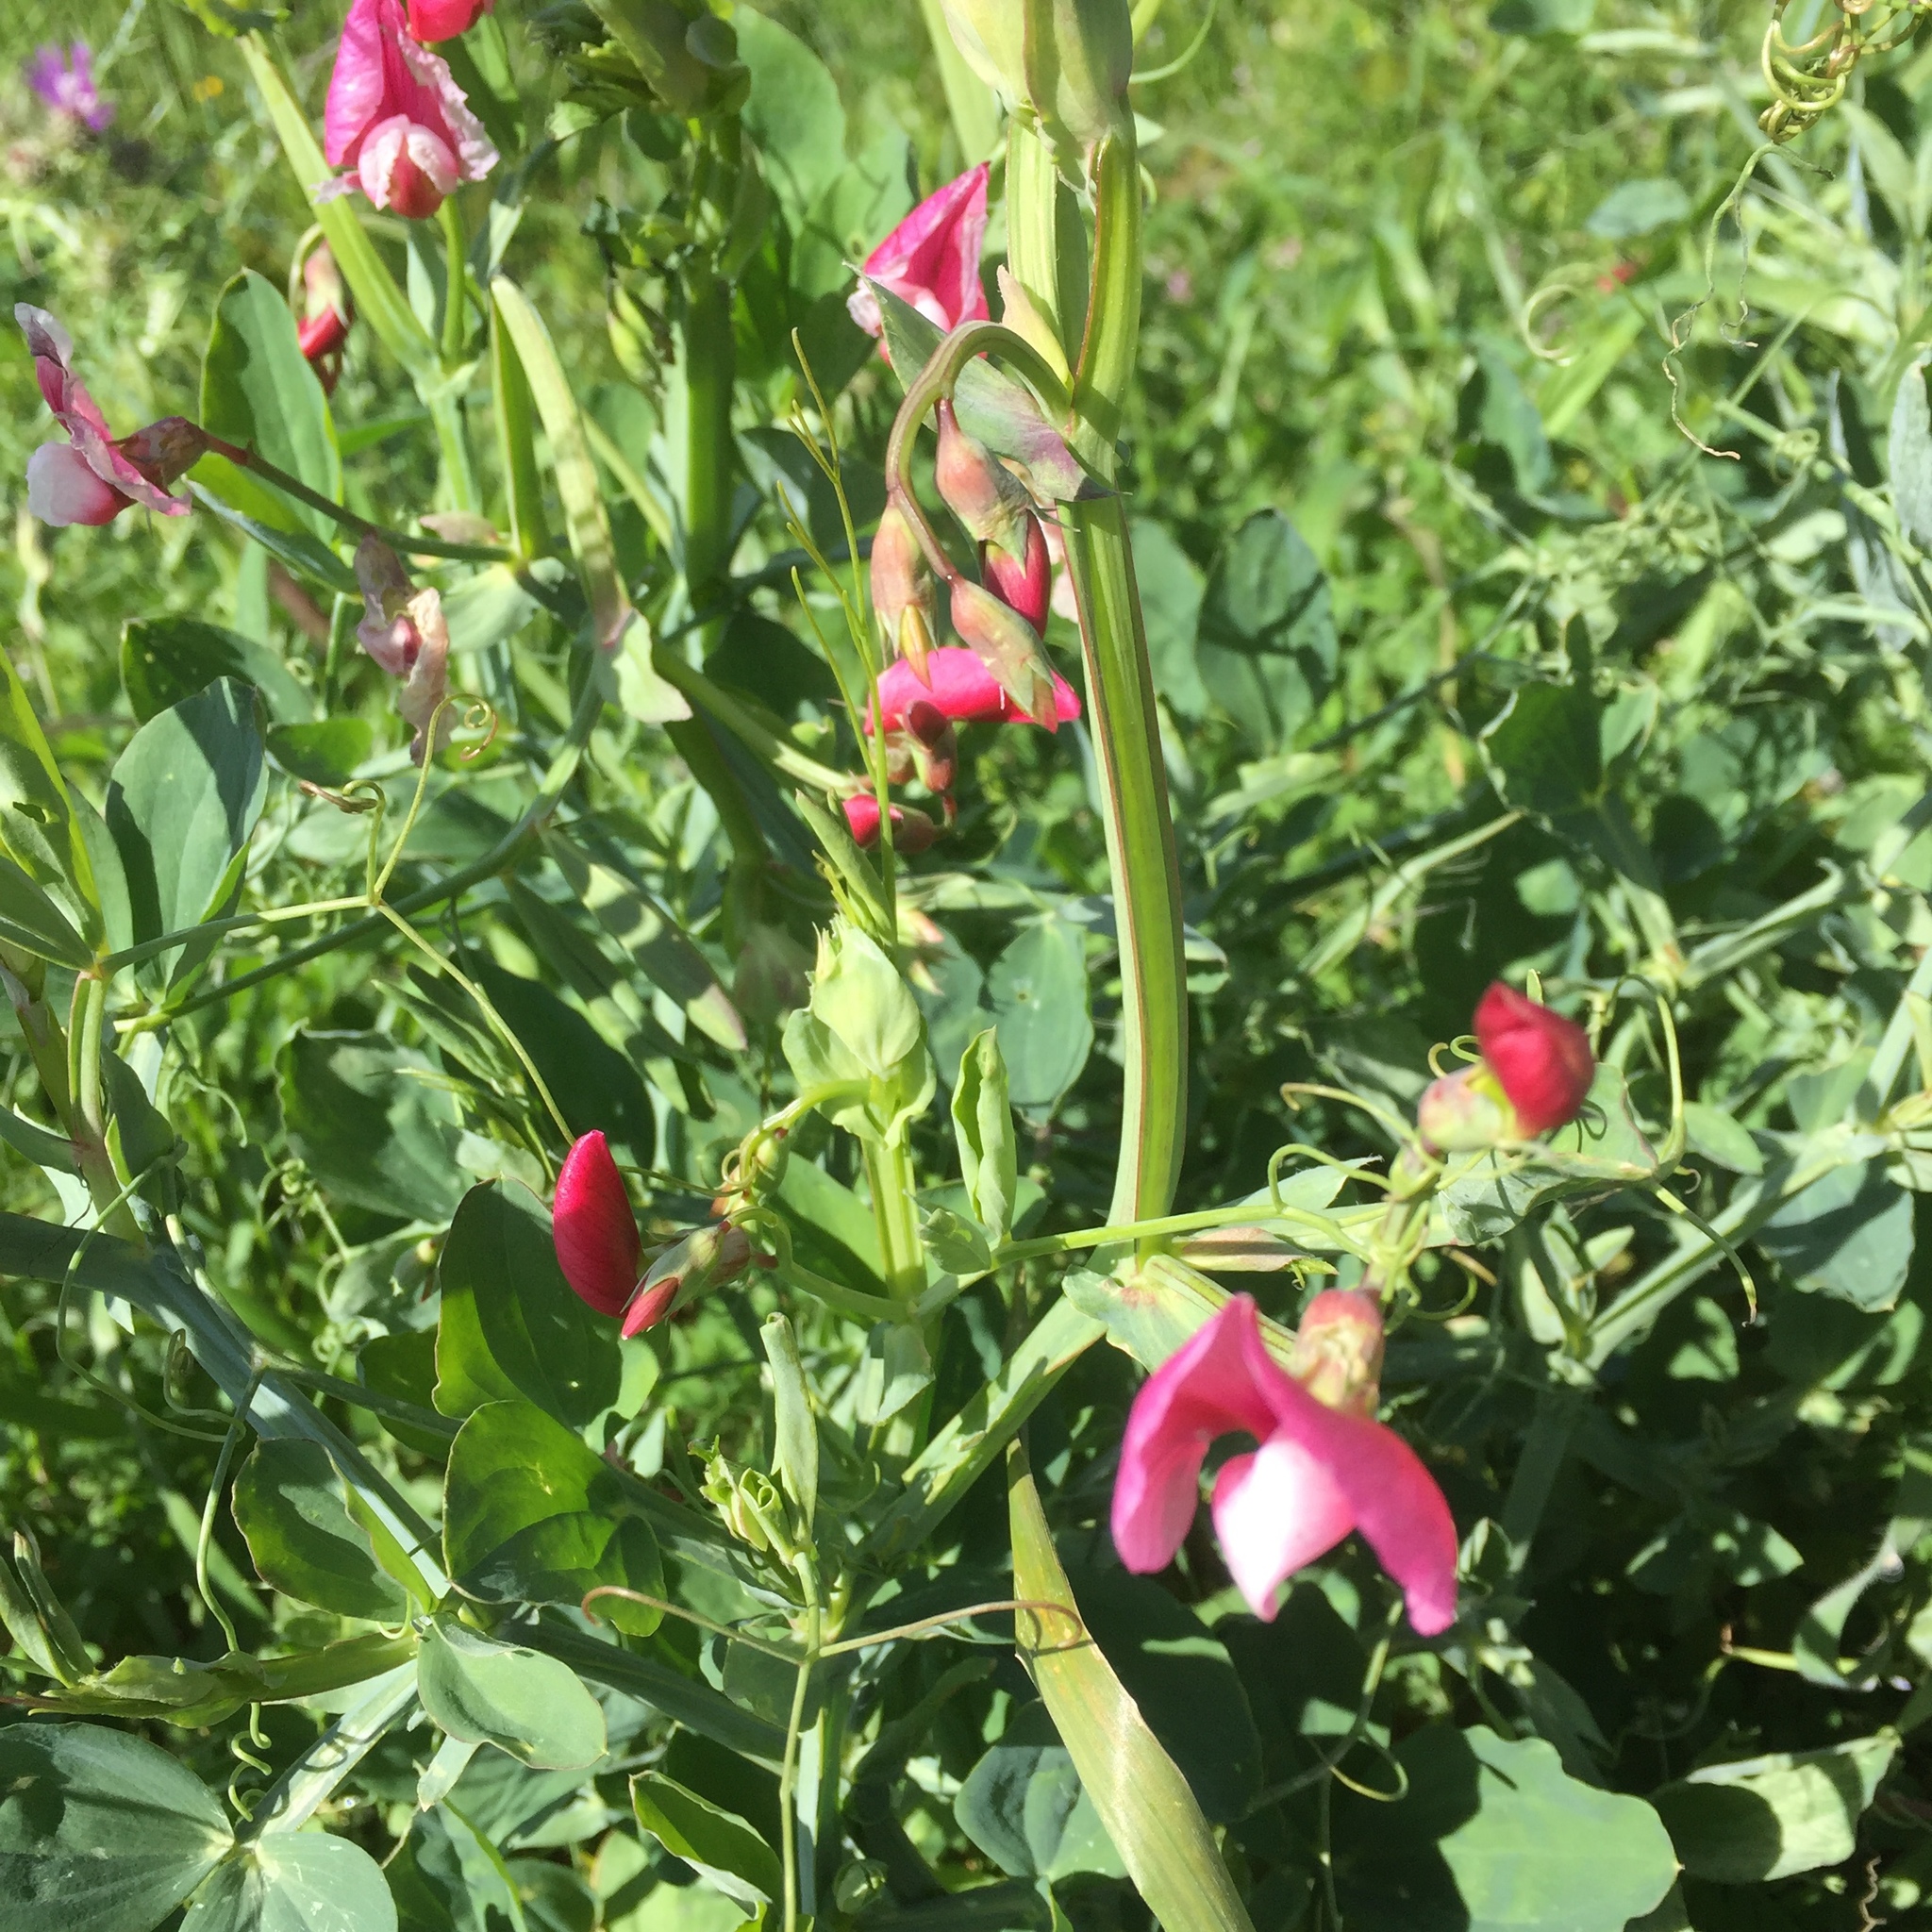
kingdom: Plantae
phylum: Tracheophyta
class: Magnoliopsida
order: Fabales
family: Fabaceae
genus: Lathyrus
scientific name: Lathyrus tingitanus
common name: Tangier pea
